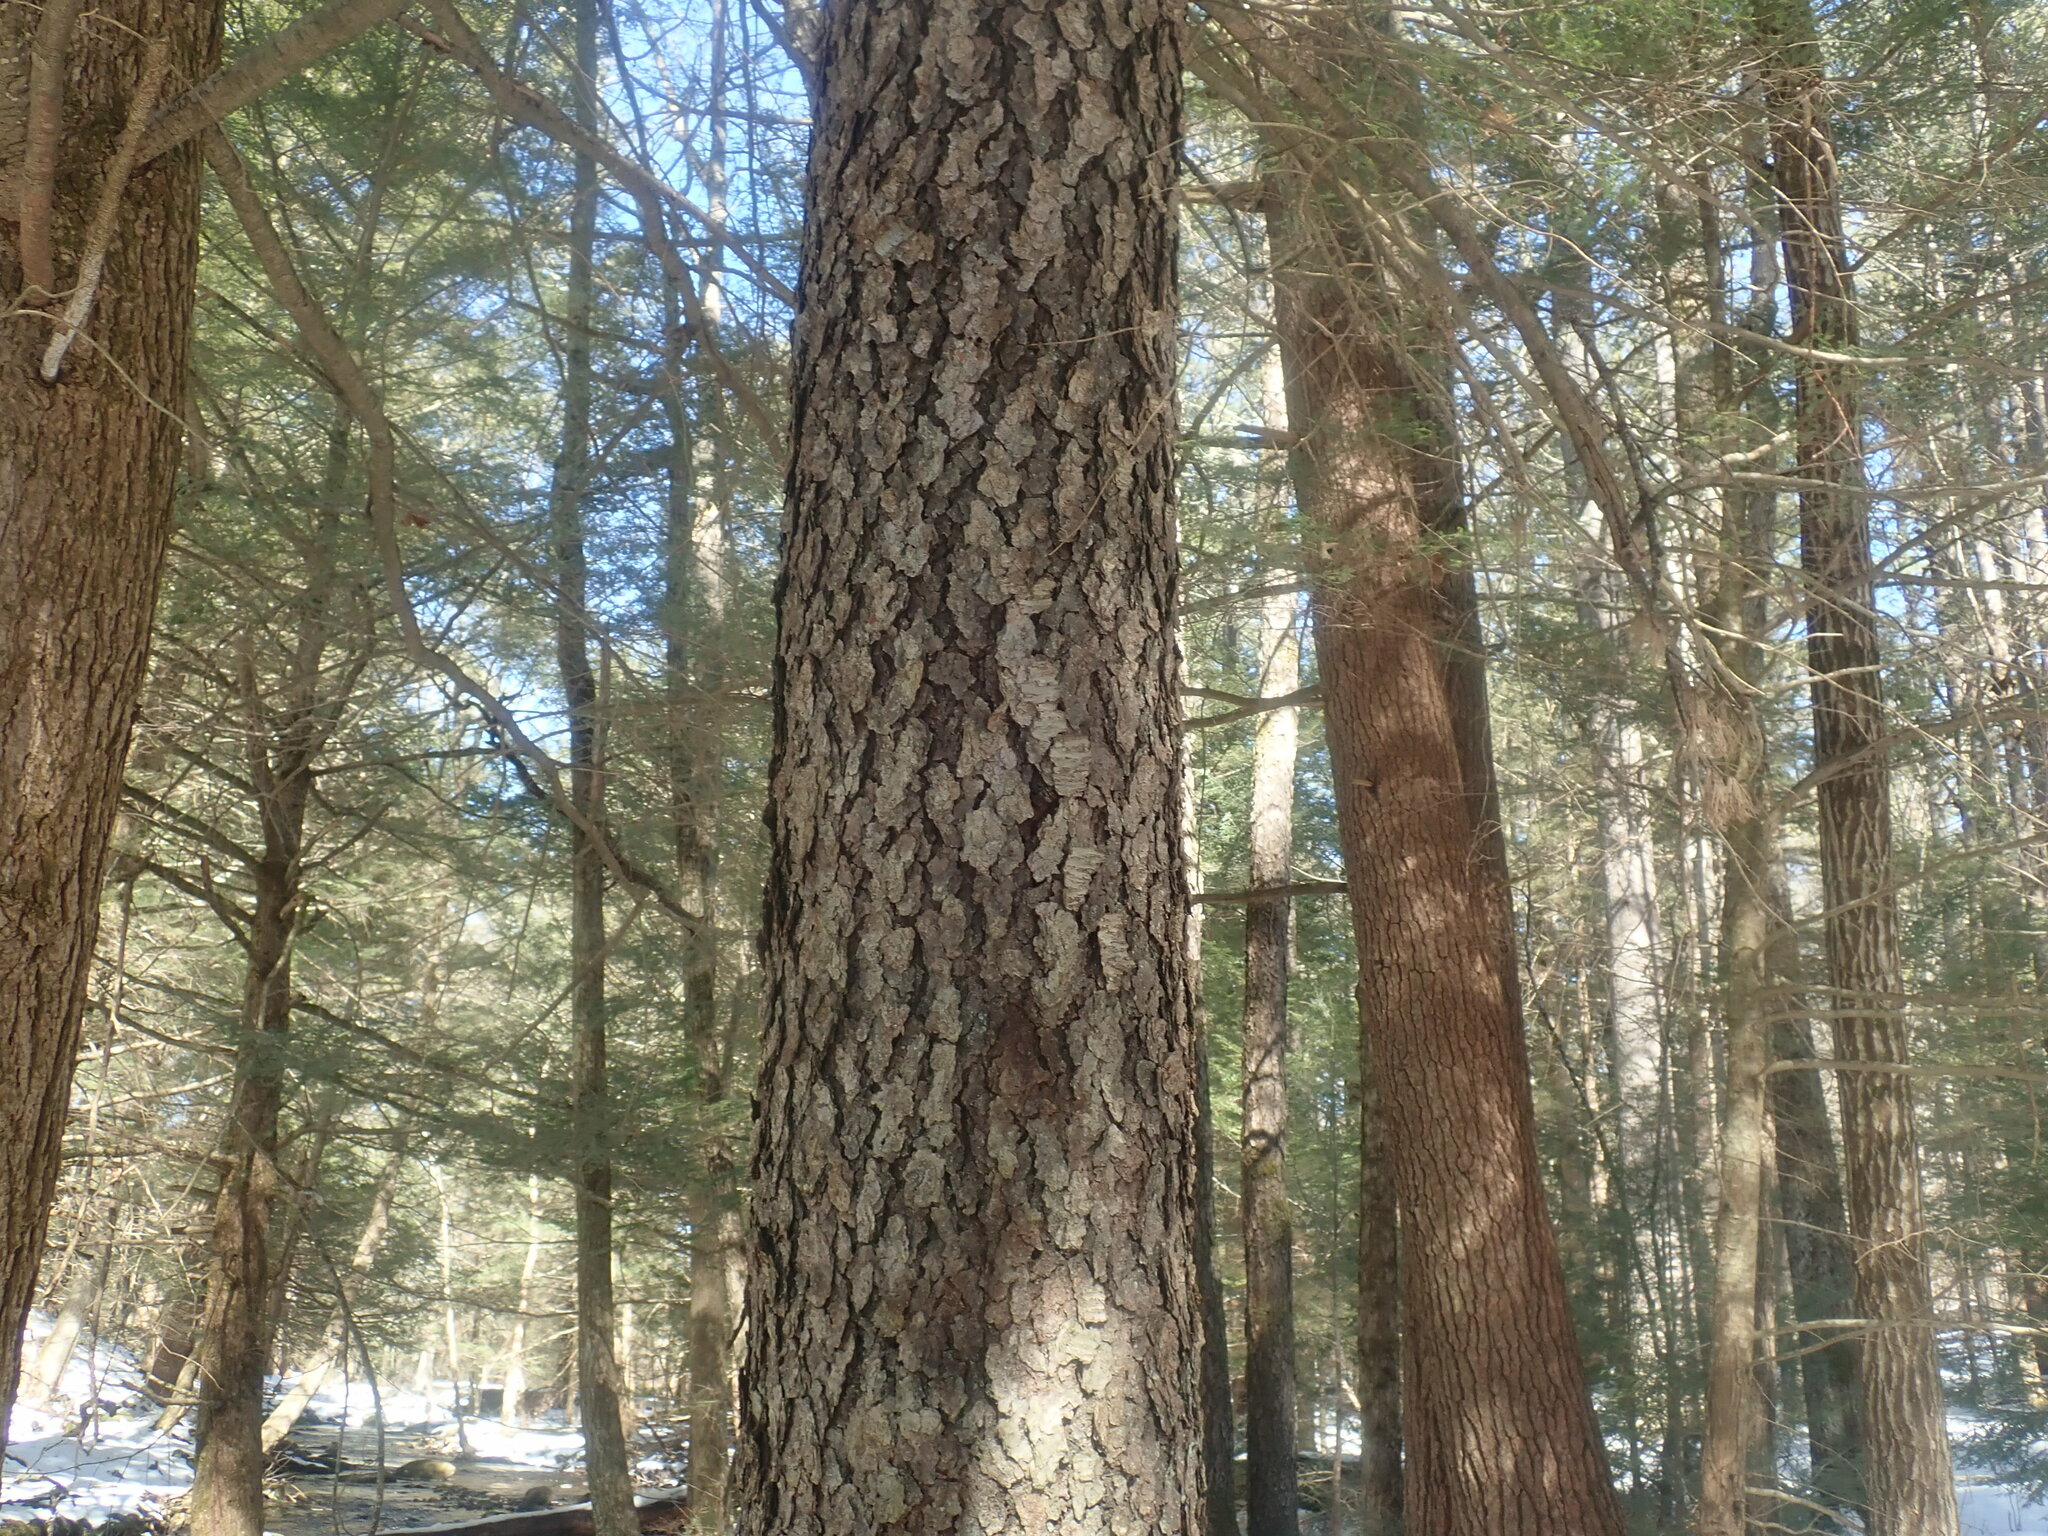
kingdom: Plantae
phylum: Tracheophyta
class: Magnoliopsida
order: Rosales
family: Rosaceae
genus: Prunus
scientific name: Prunus serotina
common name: Black cherry
